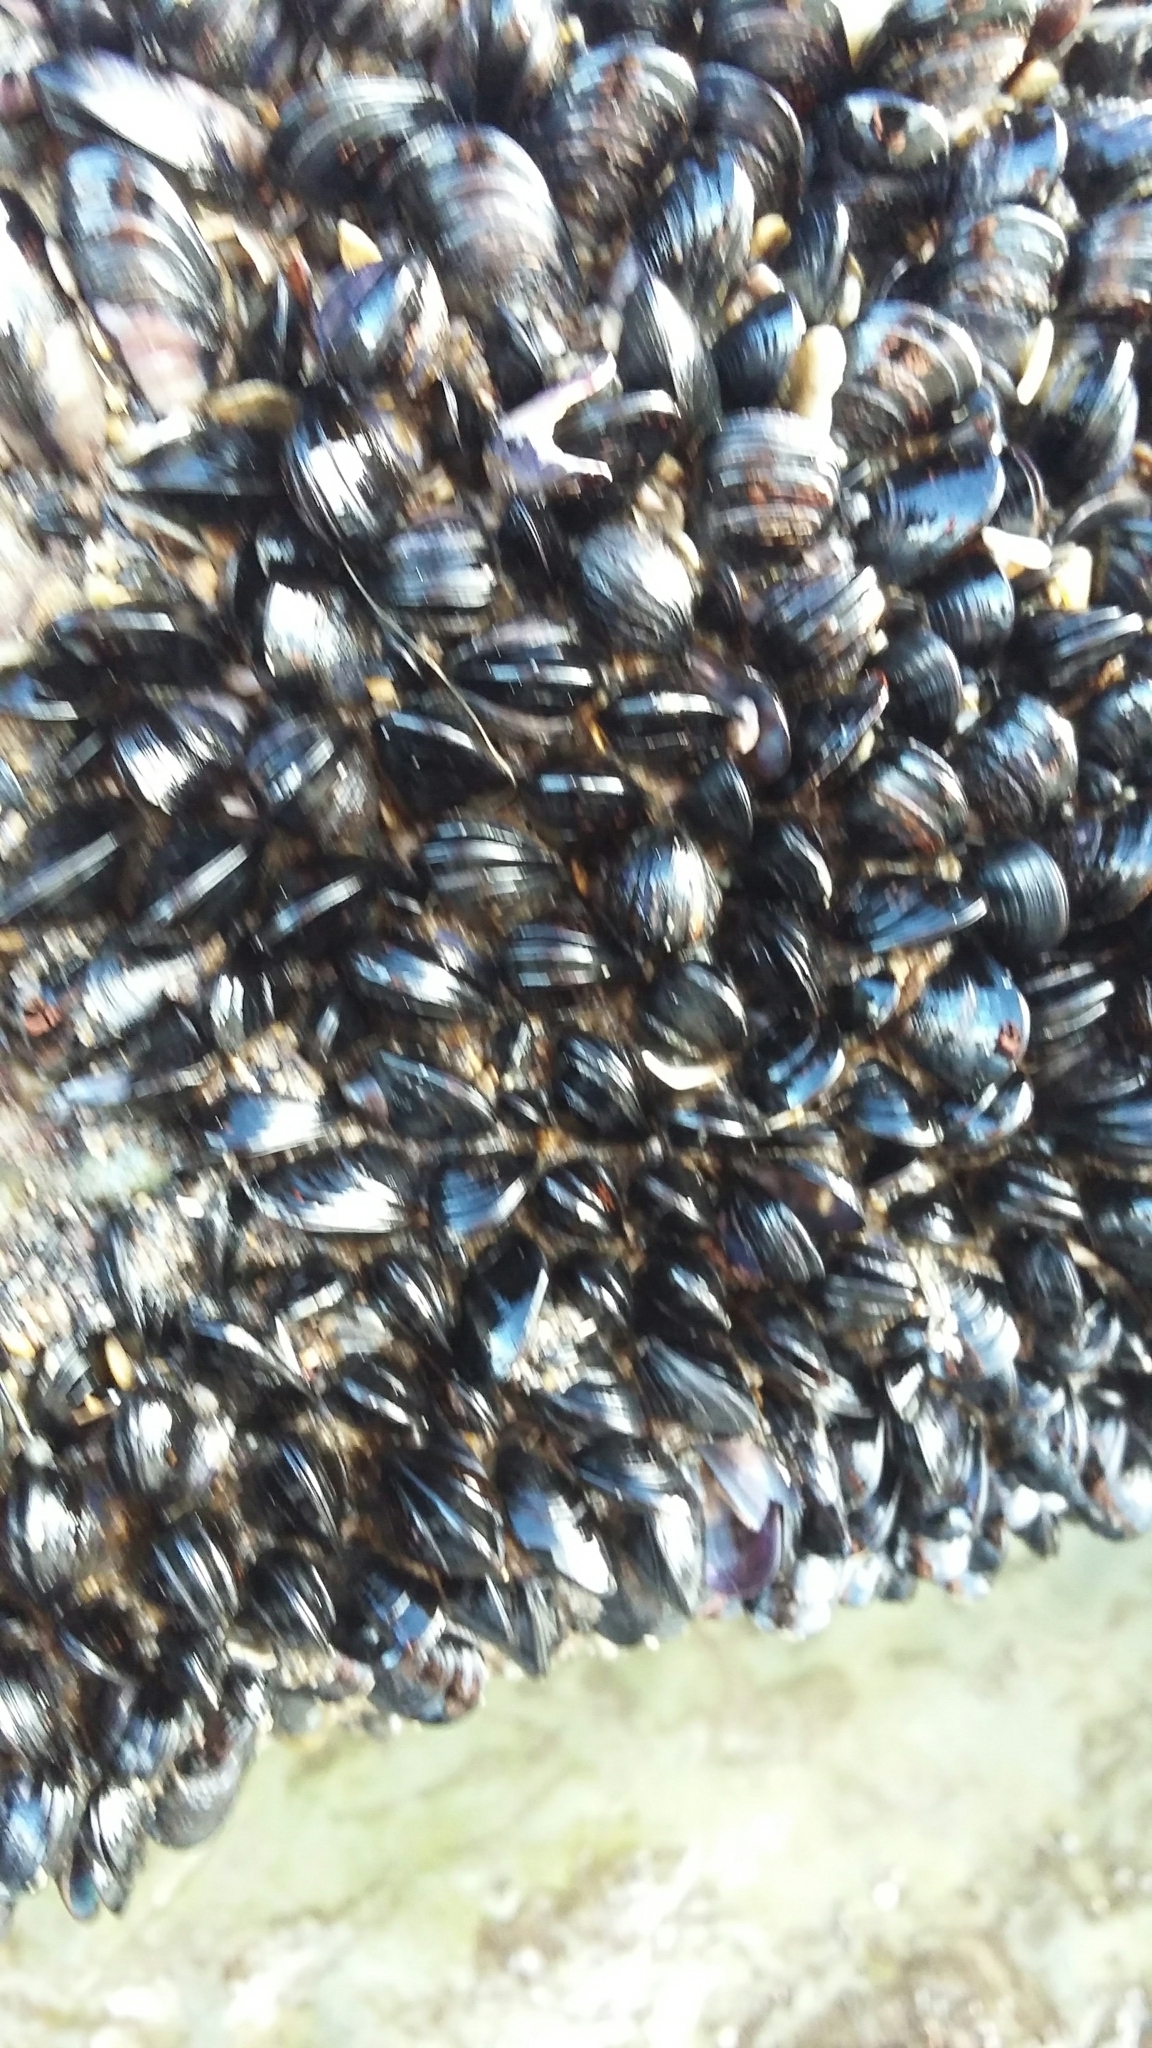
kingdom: Animalia
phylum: Mollusca
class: Bivalvia
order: Mytilida
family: Mytilidae
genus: Xenostrobus
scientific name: Xenostrobus neozelanicus
